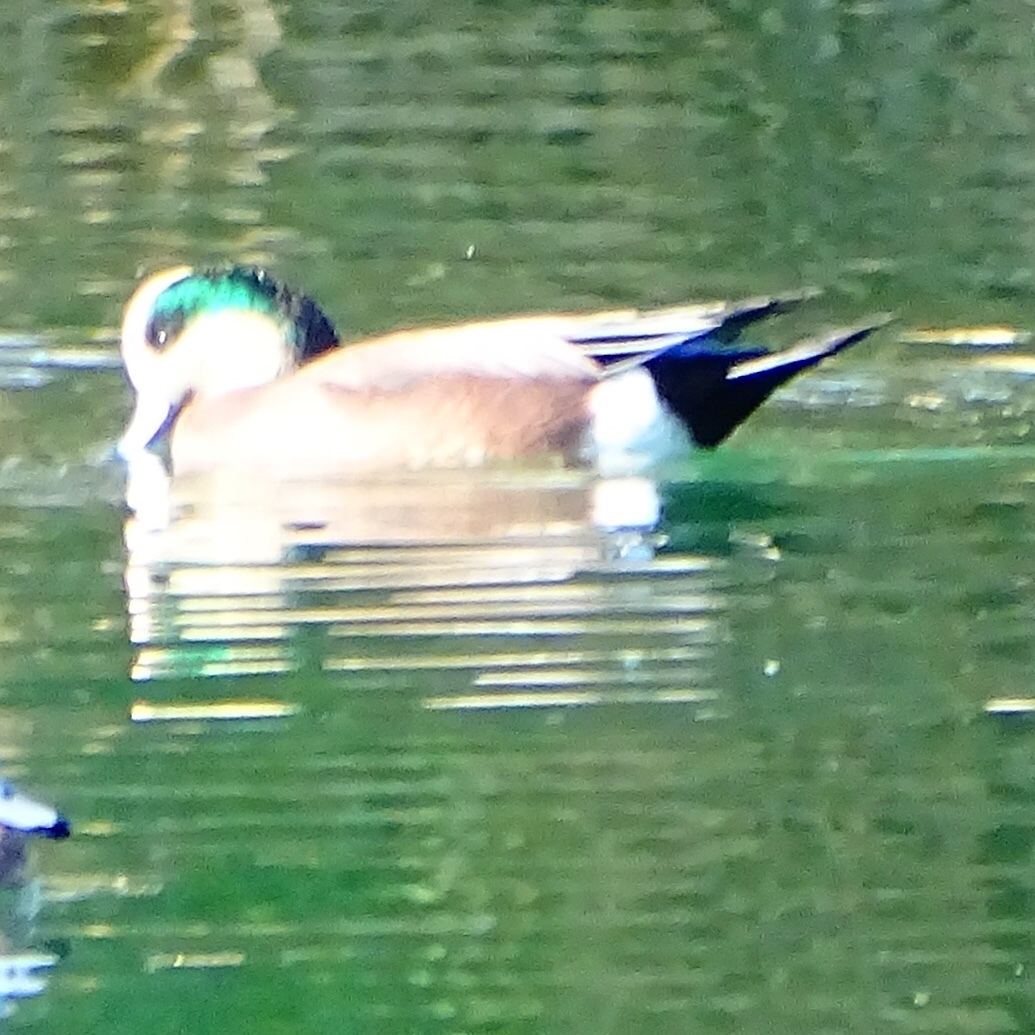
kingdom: Animalia
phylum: Chordata
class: Aves
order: Anseriformes
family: Anatidae
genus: Mareca
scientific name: Mareca americana
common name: American wigeon
